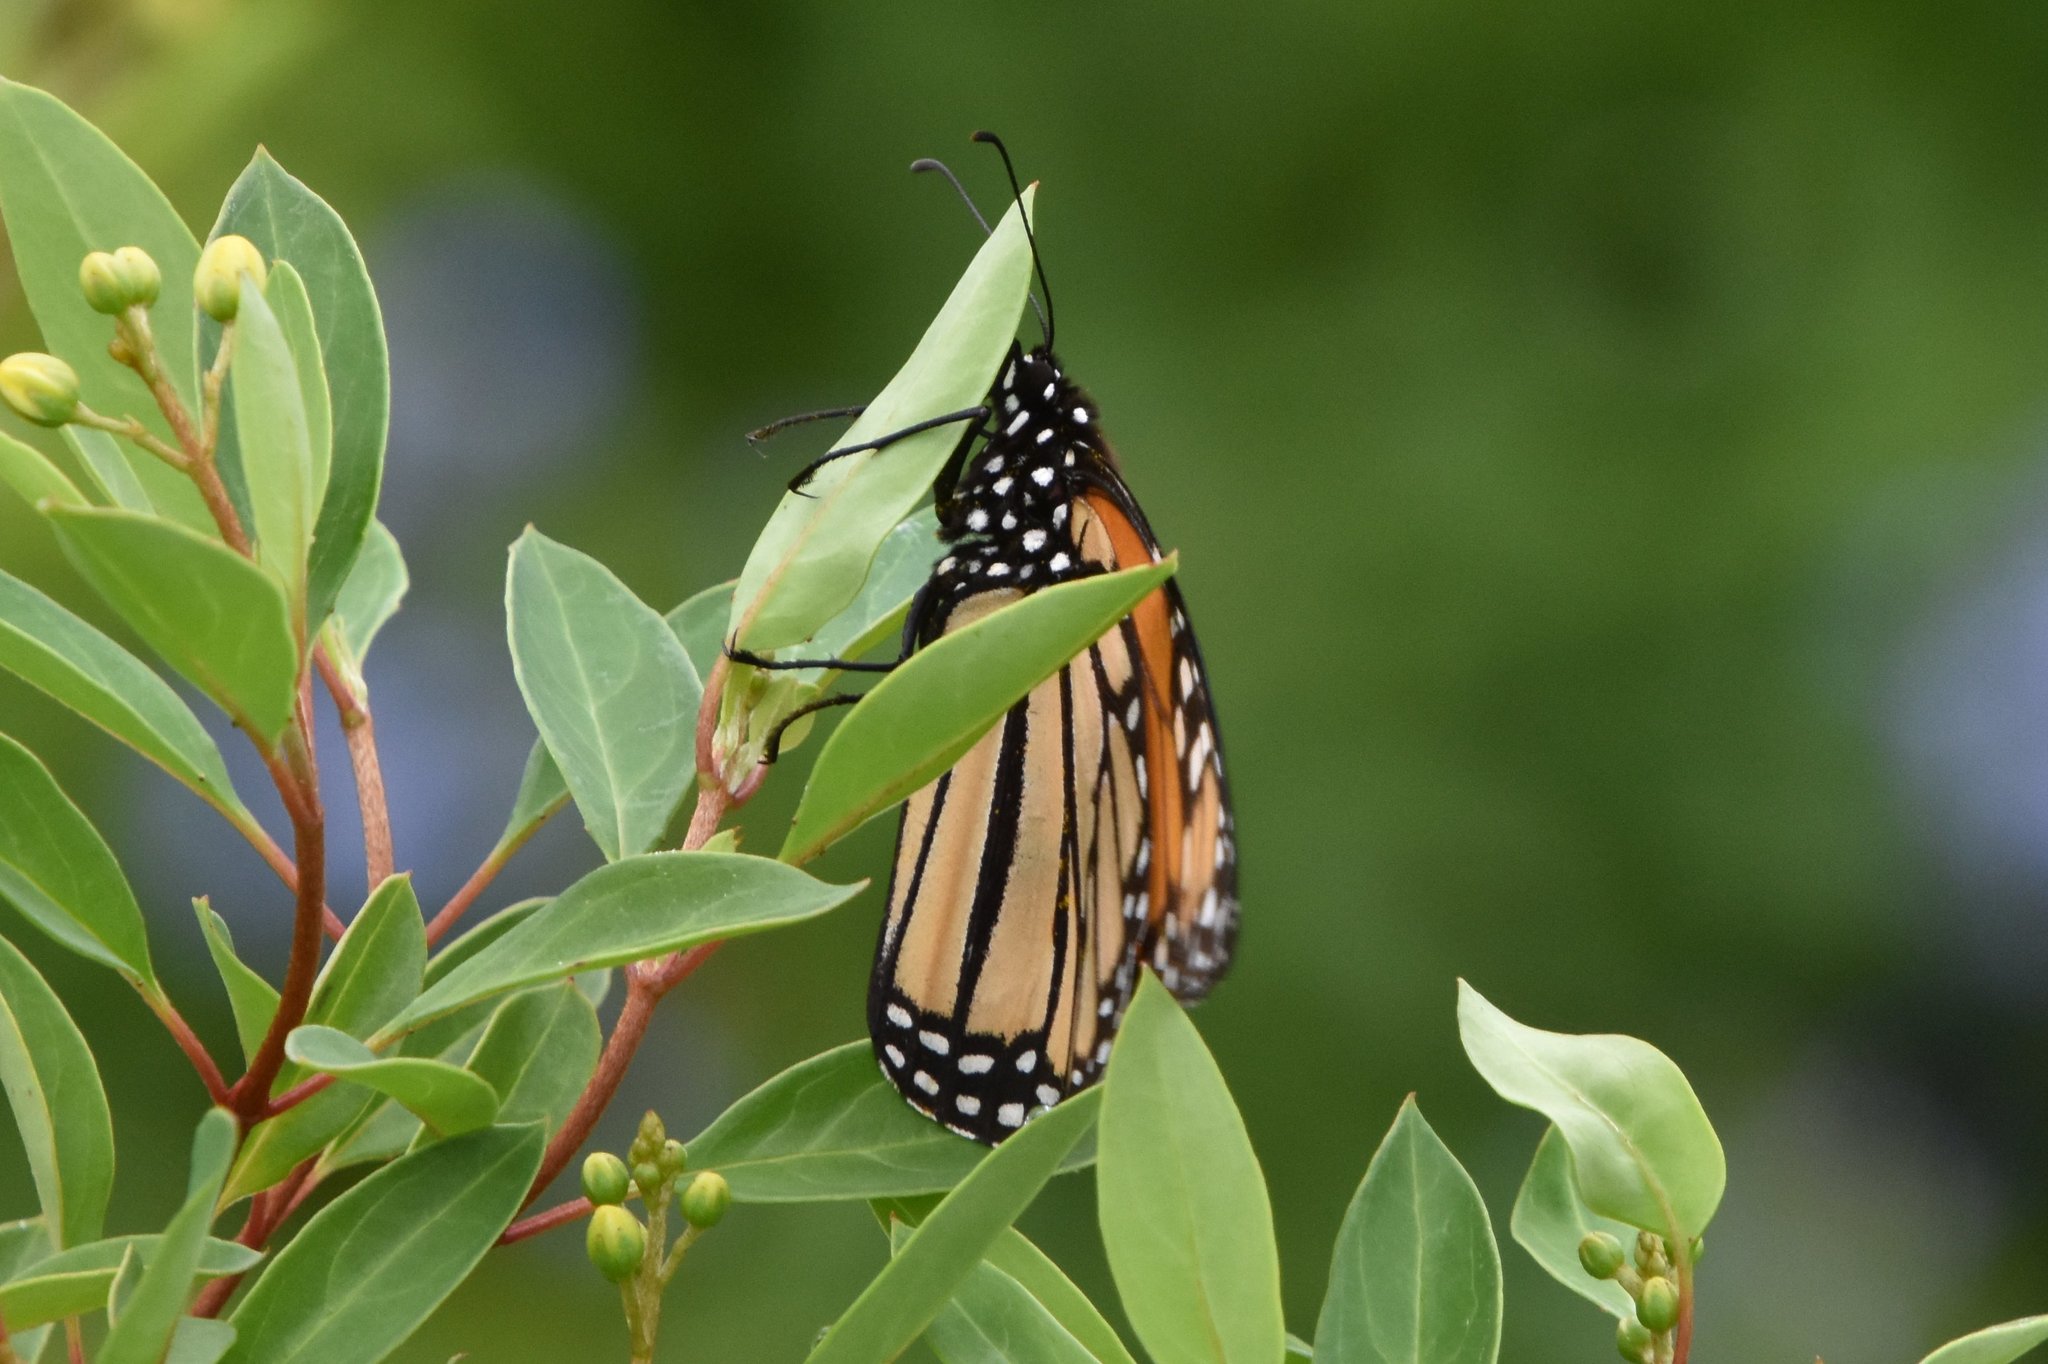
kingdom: Animalia
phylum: Arthropoda
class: Insecta
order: Lepidoptera
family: Nymphalidae
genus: Danaus
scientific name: Danaus plexippus
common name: Monarch
